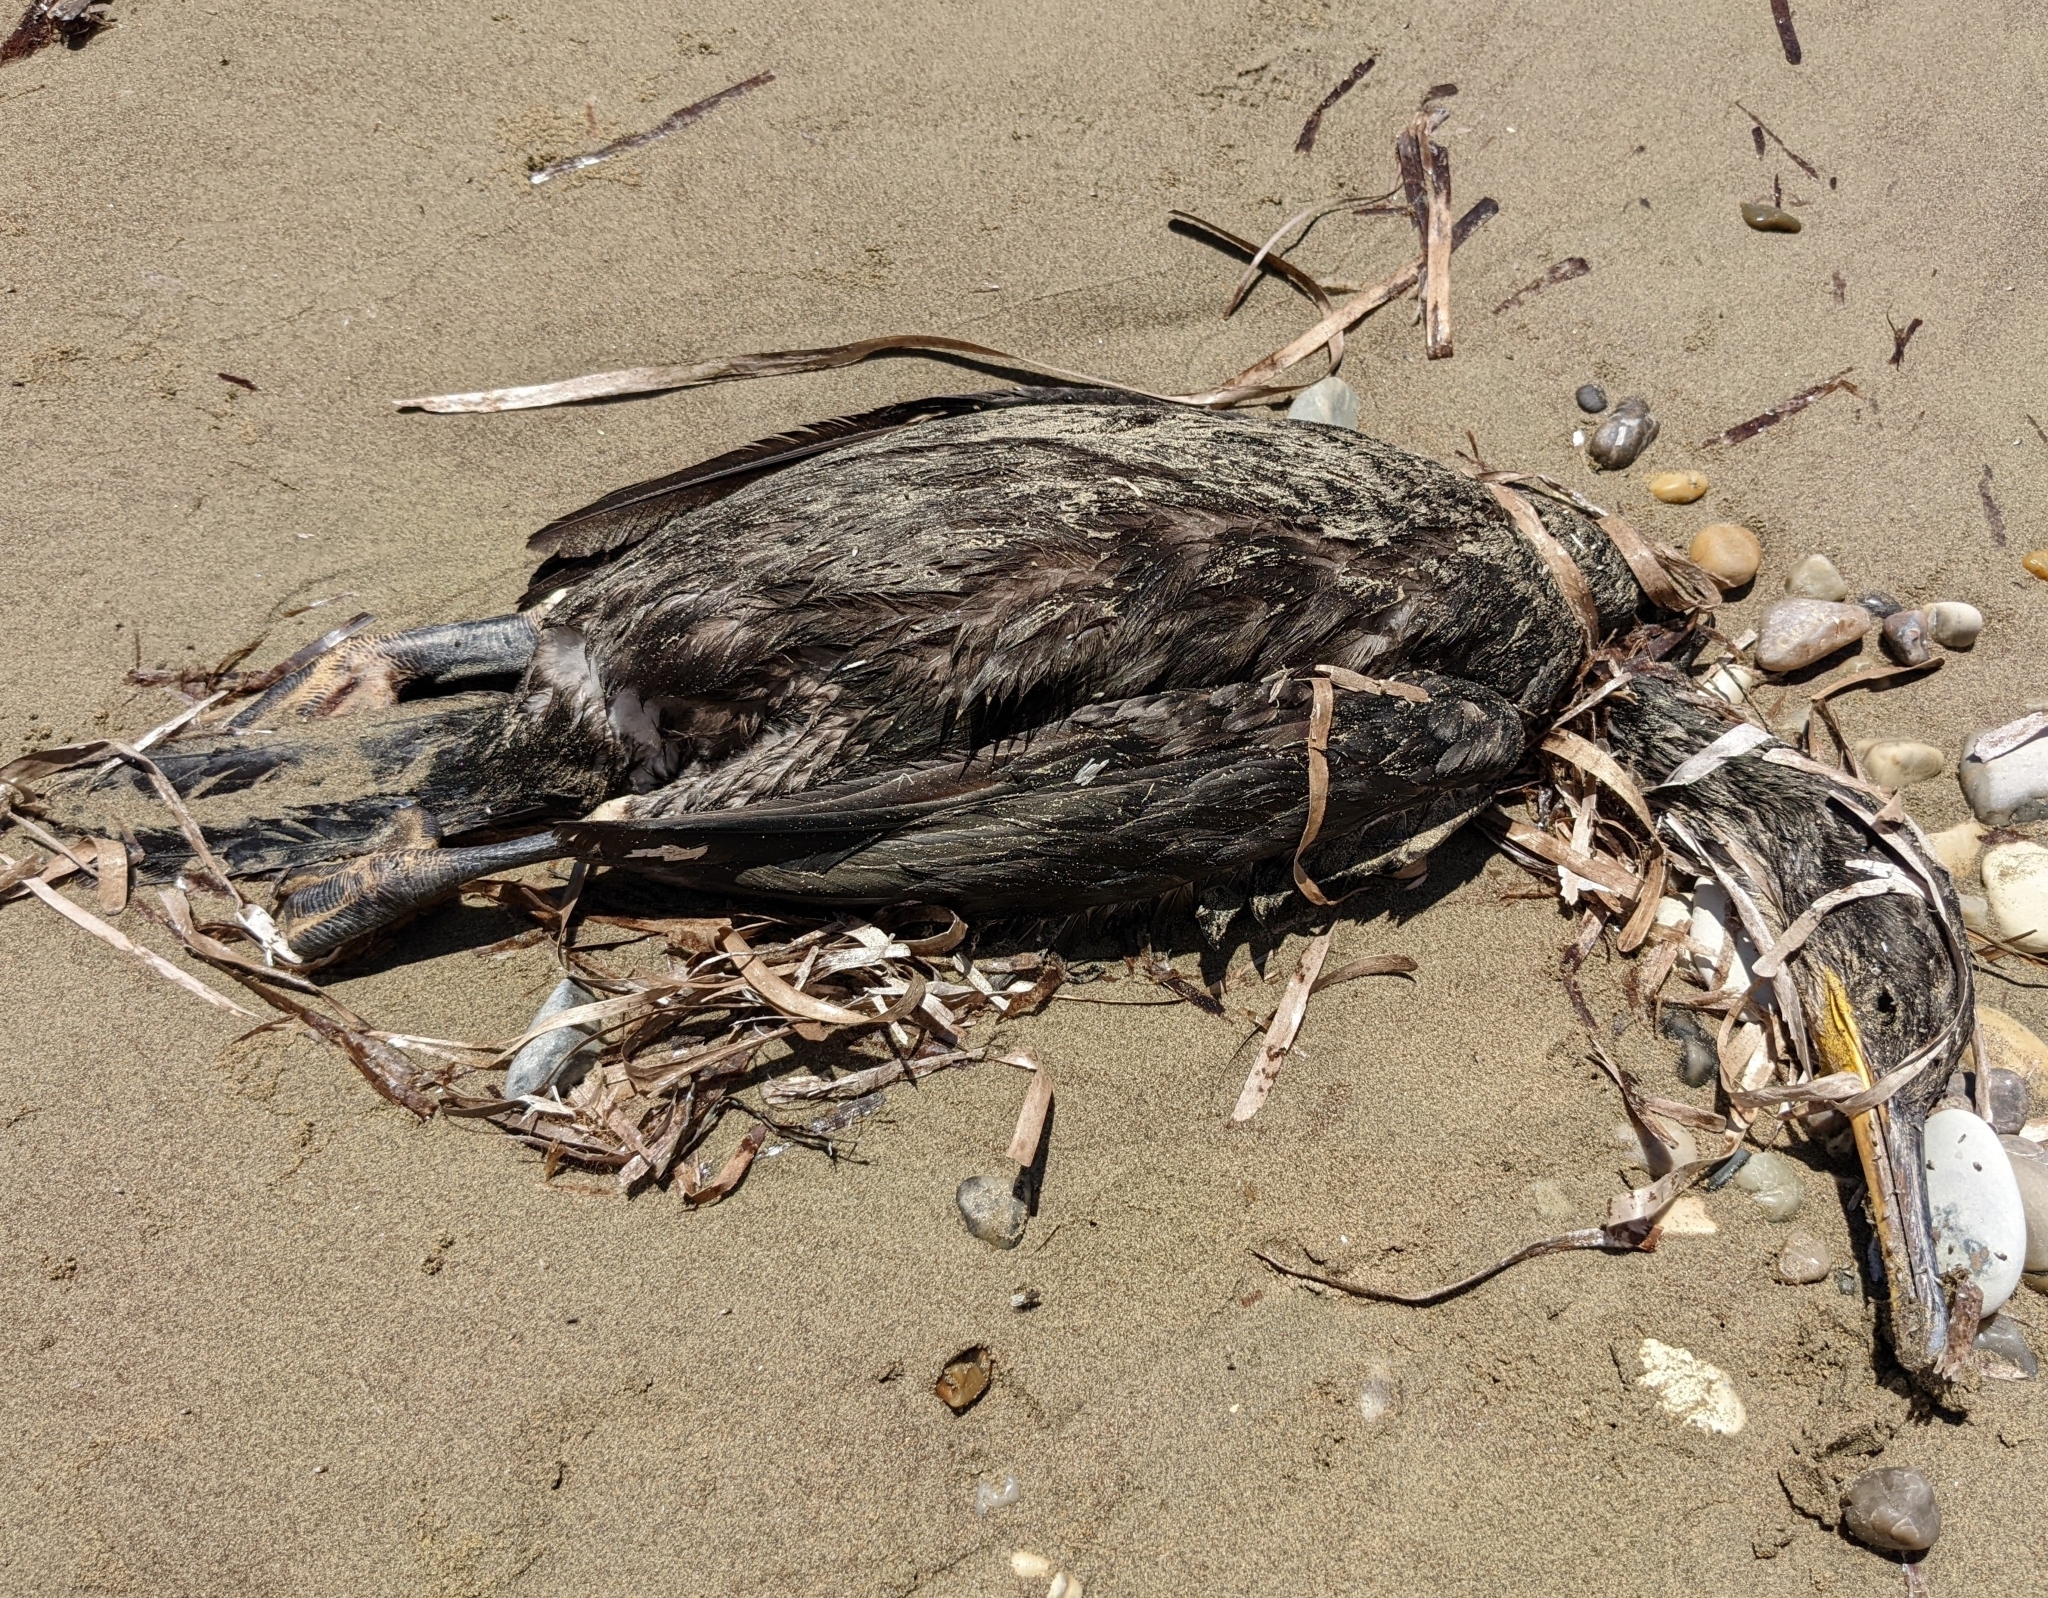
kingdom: Animalia
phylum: Chordata
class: Aves
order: Suliformes
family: Phalacrocoracidae
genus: Phalacrocorax
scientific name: Phalacrocorax aristotelis
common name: European shag
